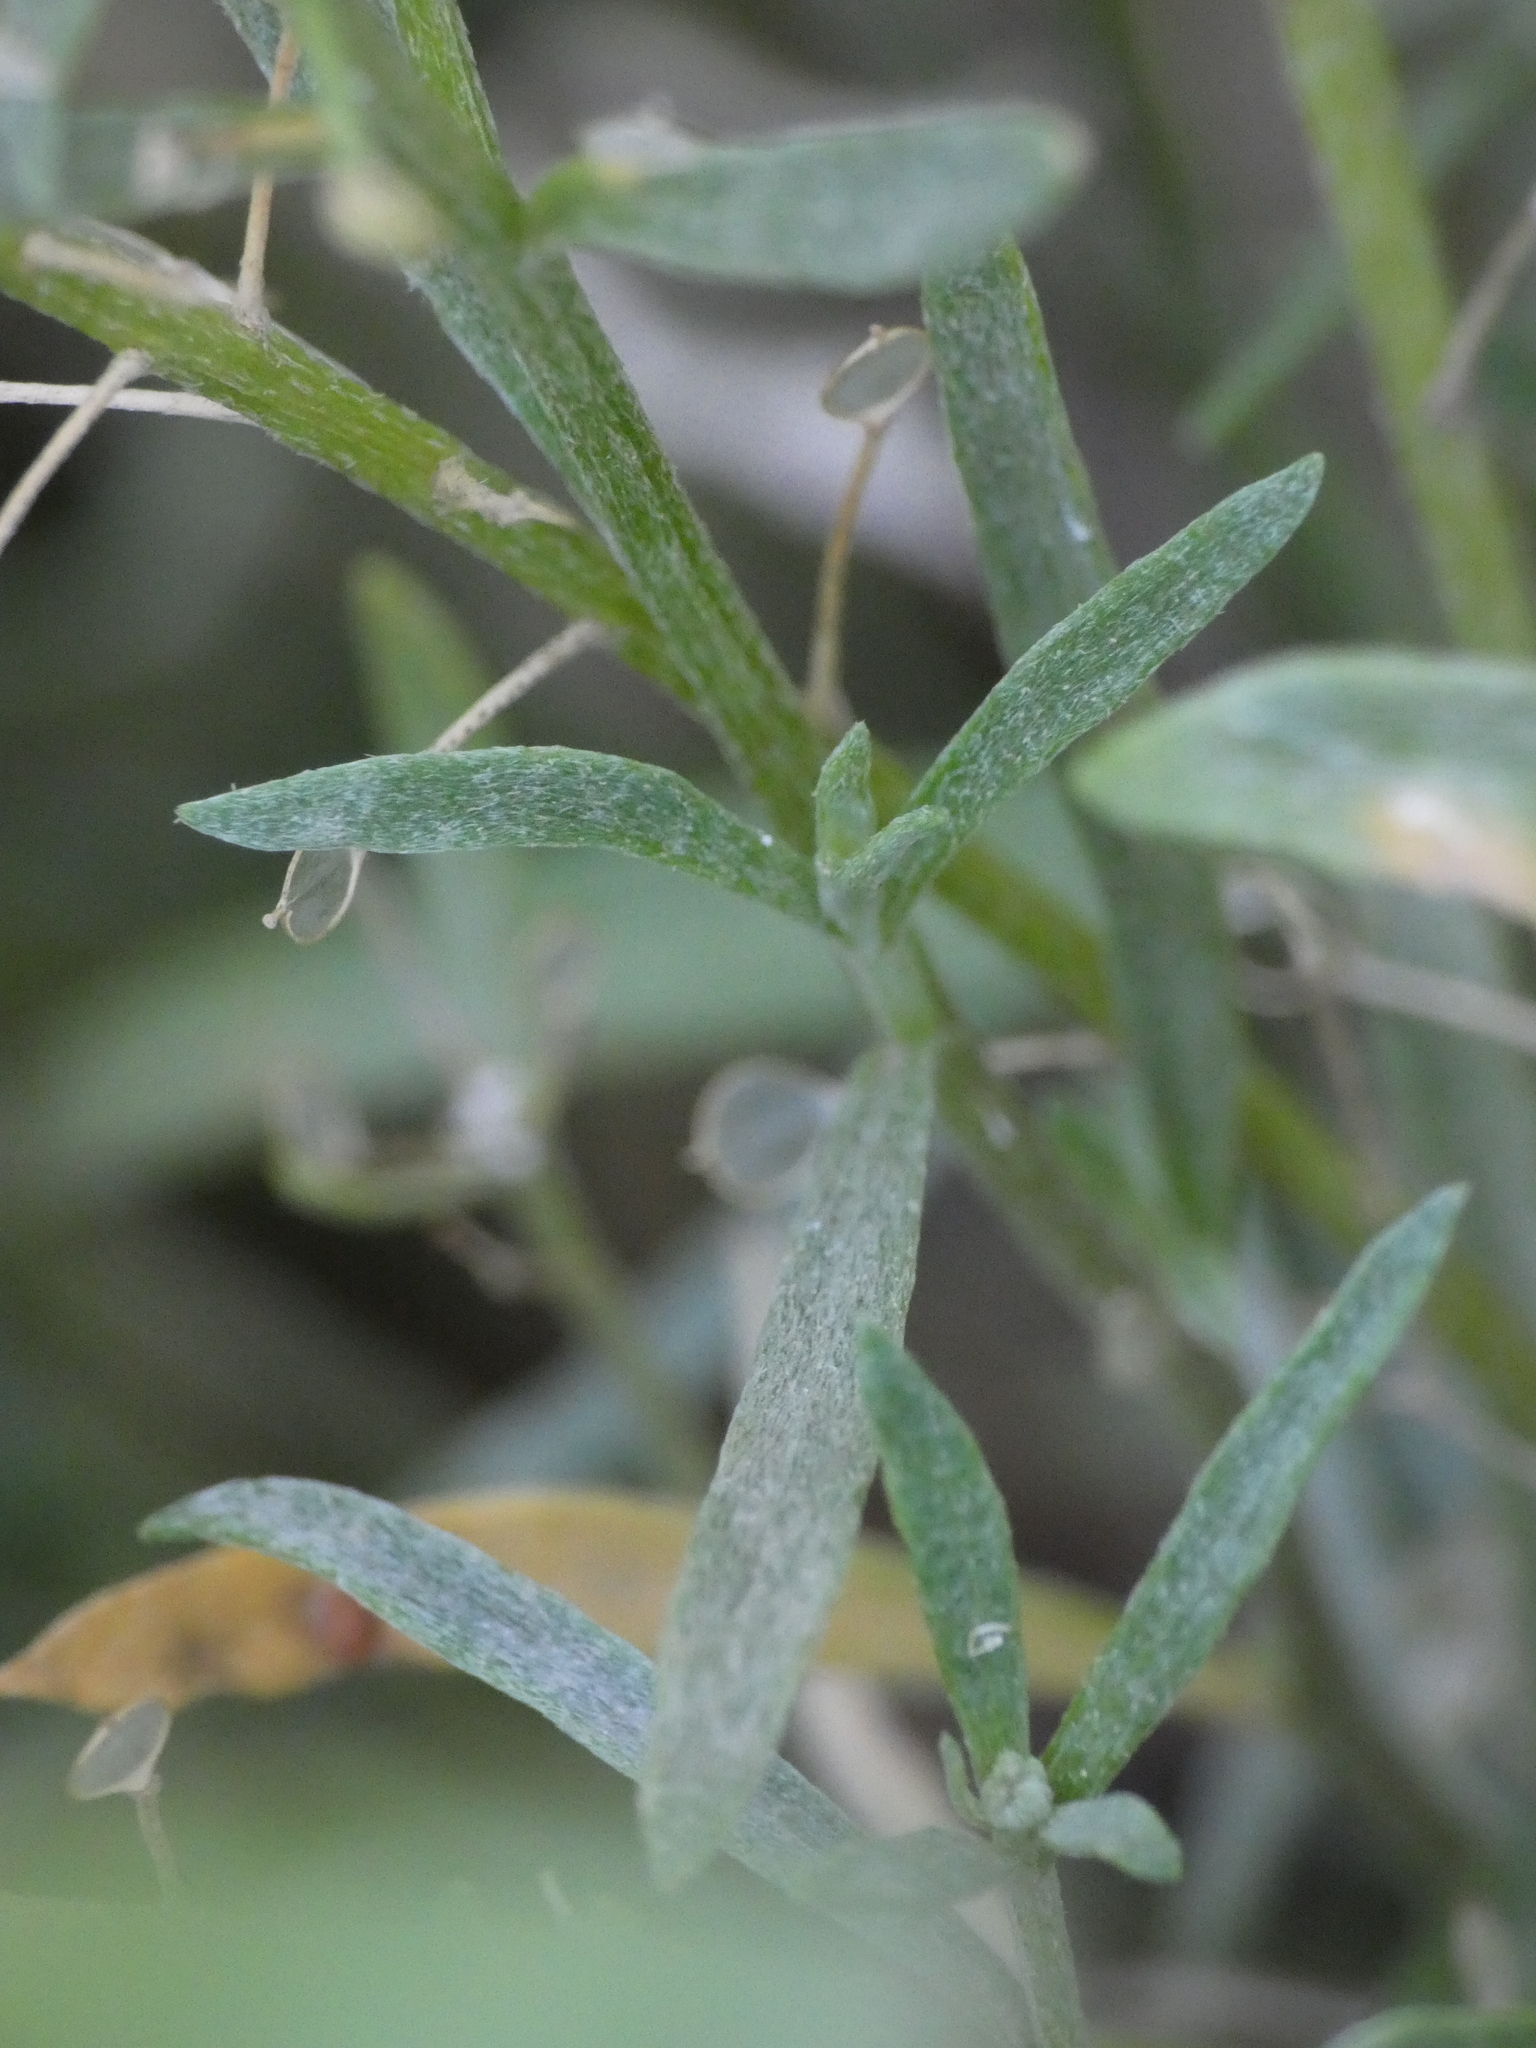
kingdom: Plantae
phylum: Tracheophyta
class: Magnoliopsida
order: Brassicales
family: Brassicaceae
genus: Lobularia
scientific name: Lobularia maritima
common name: Sweet alison
